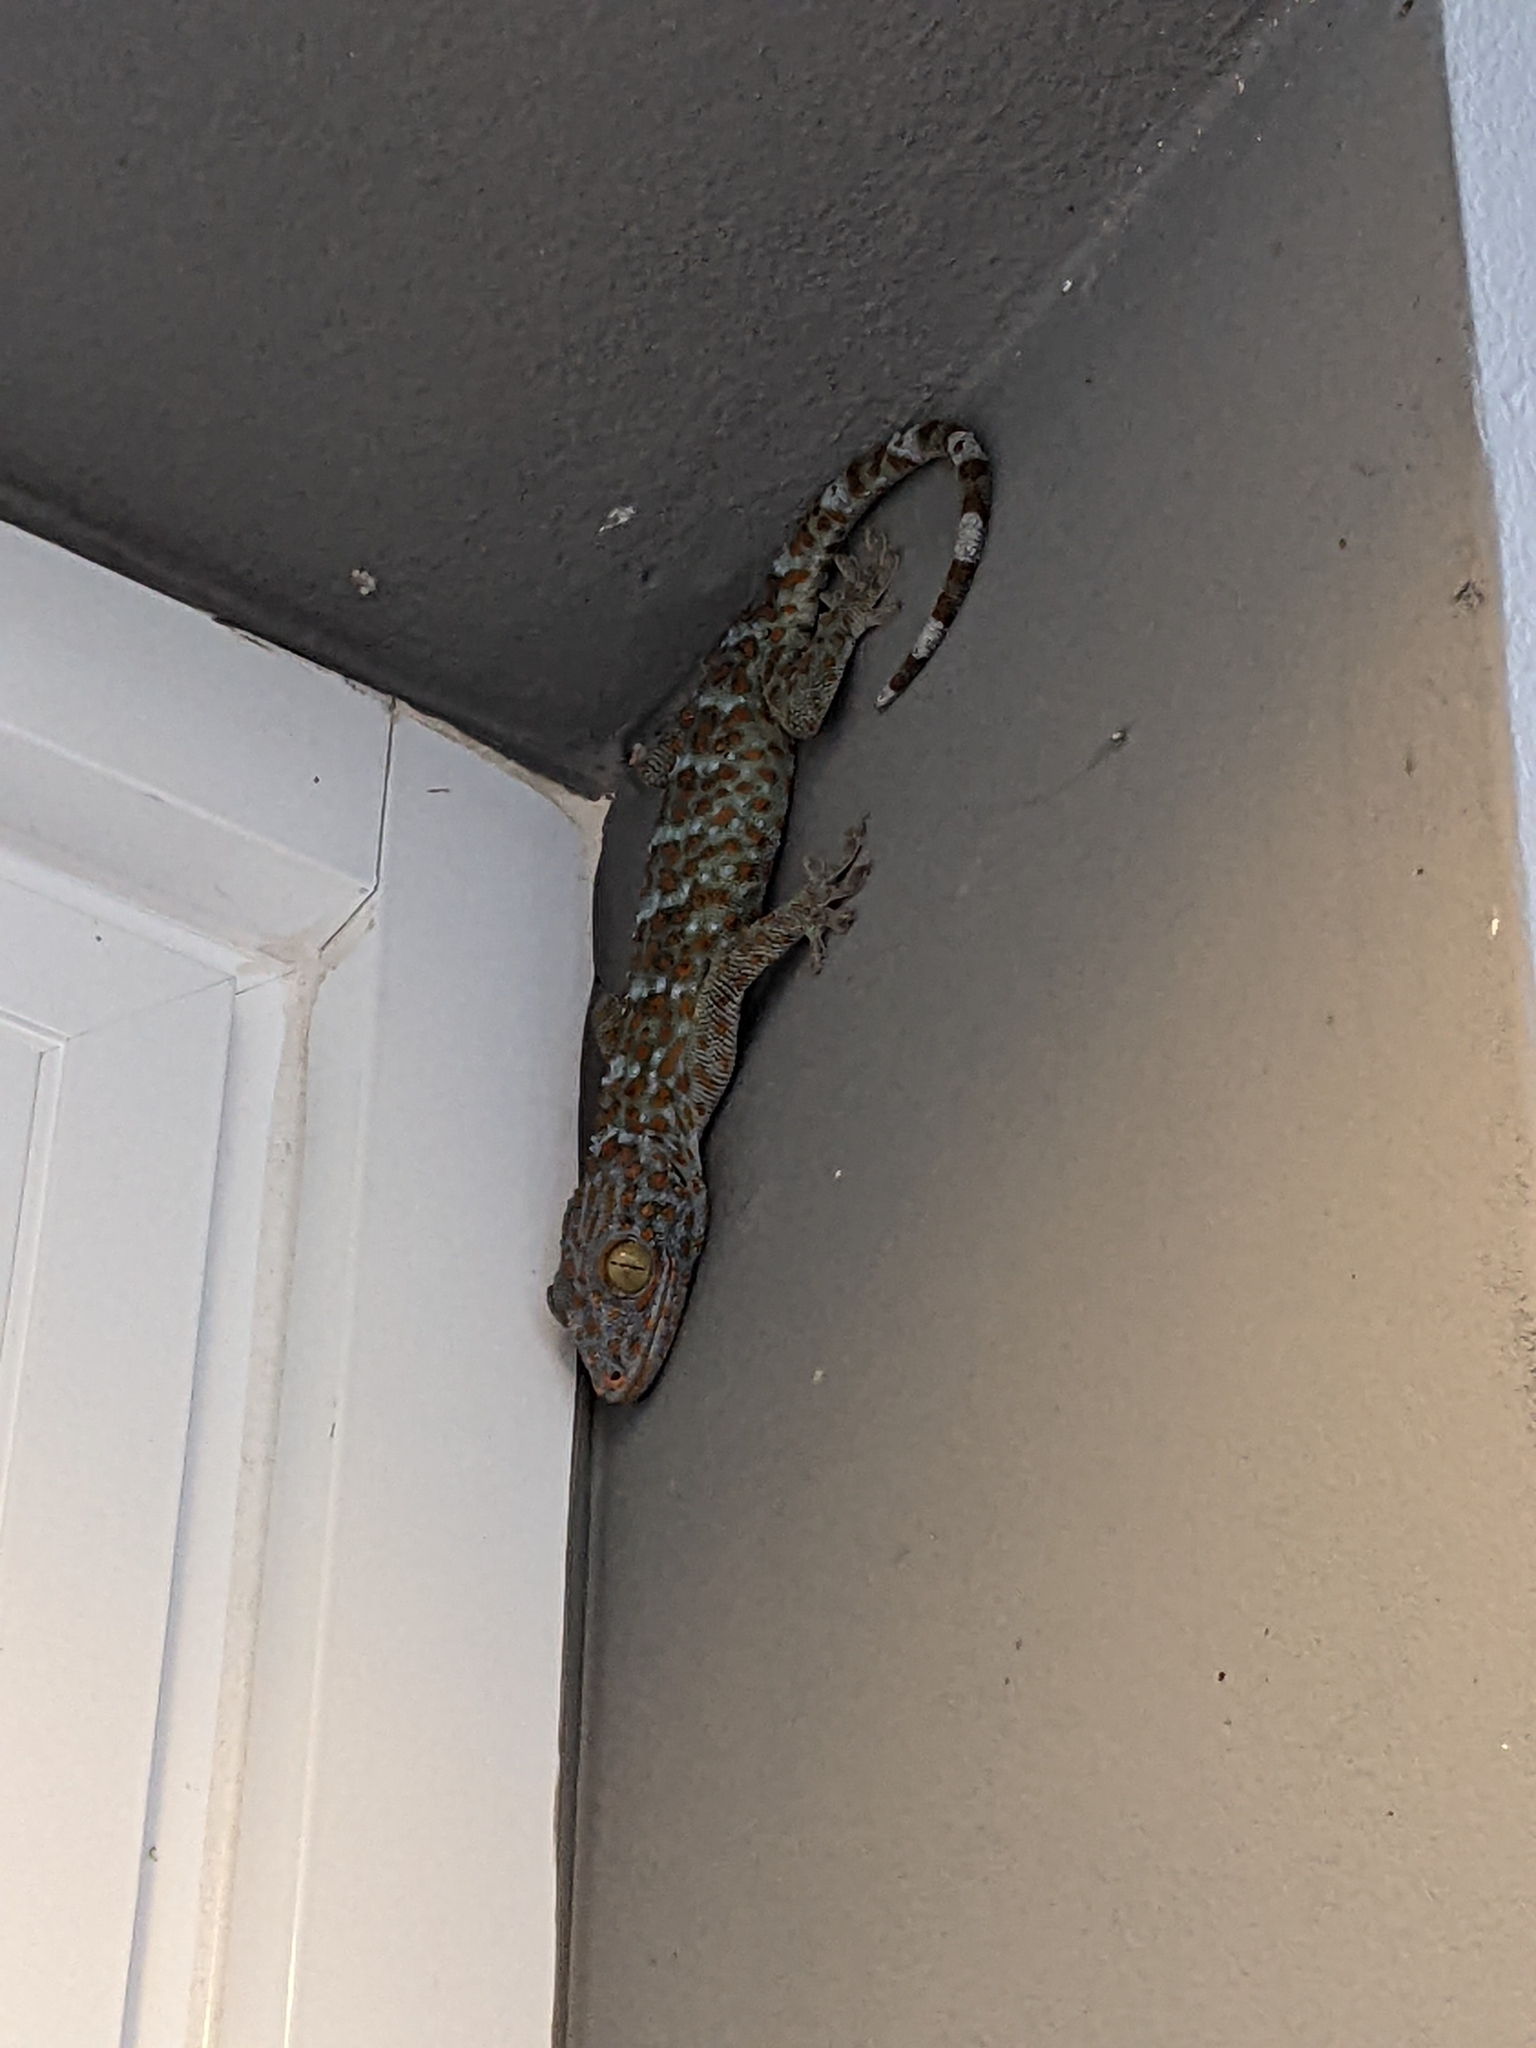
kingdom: Animalia
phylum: Chordata
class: Squamata
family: Gekkonidae
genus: Gekko
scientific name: Gekko gecko
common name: Tokay gecko
